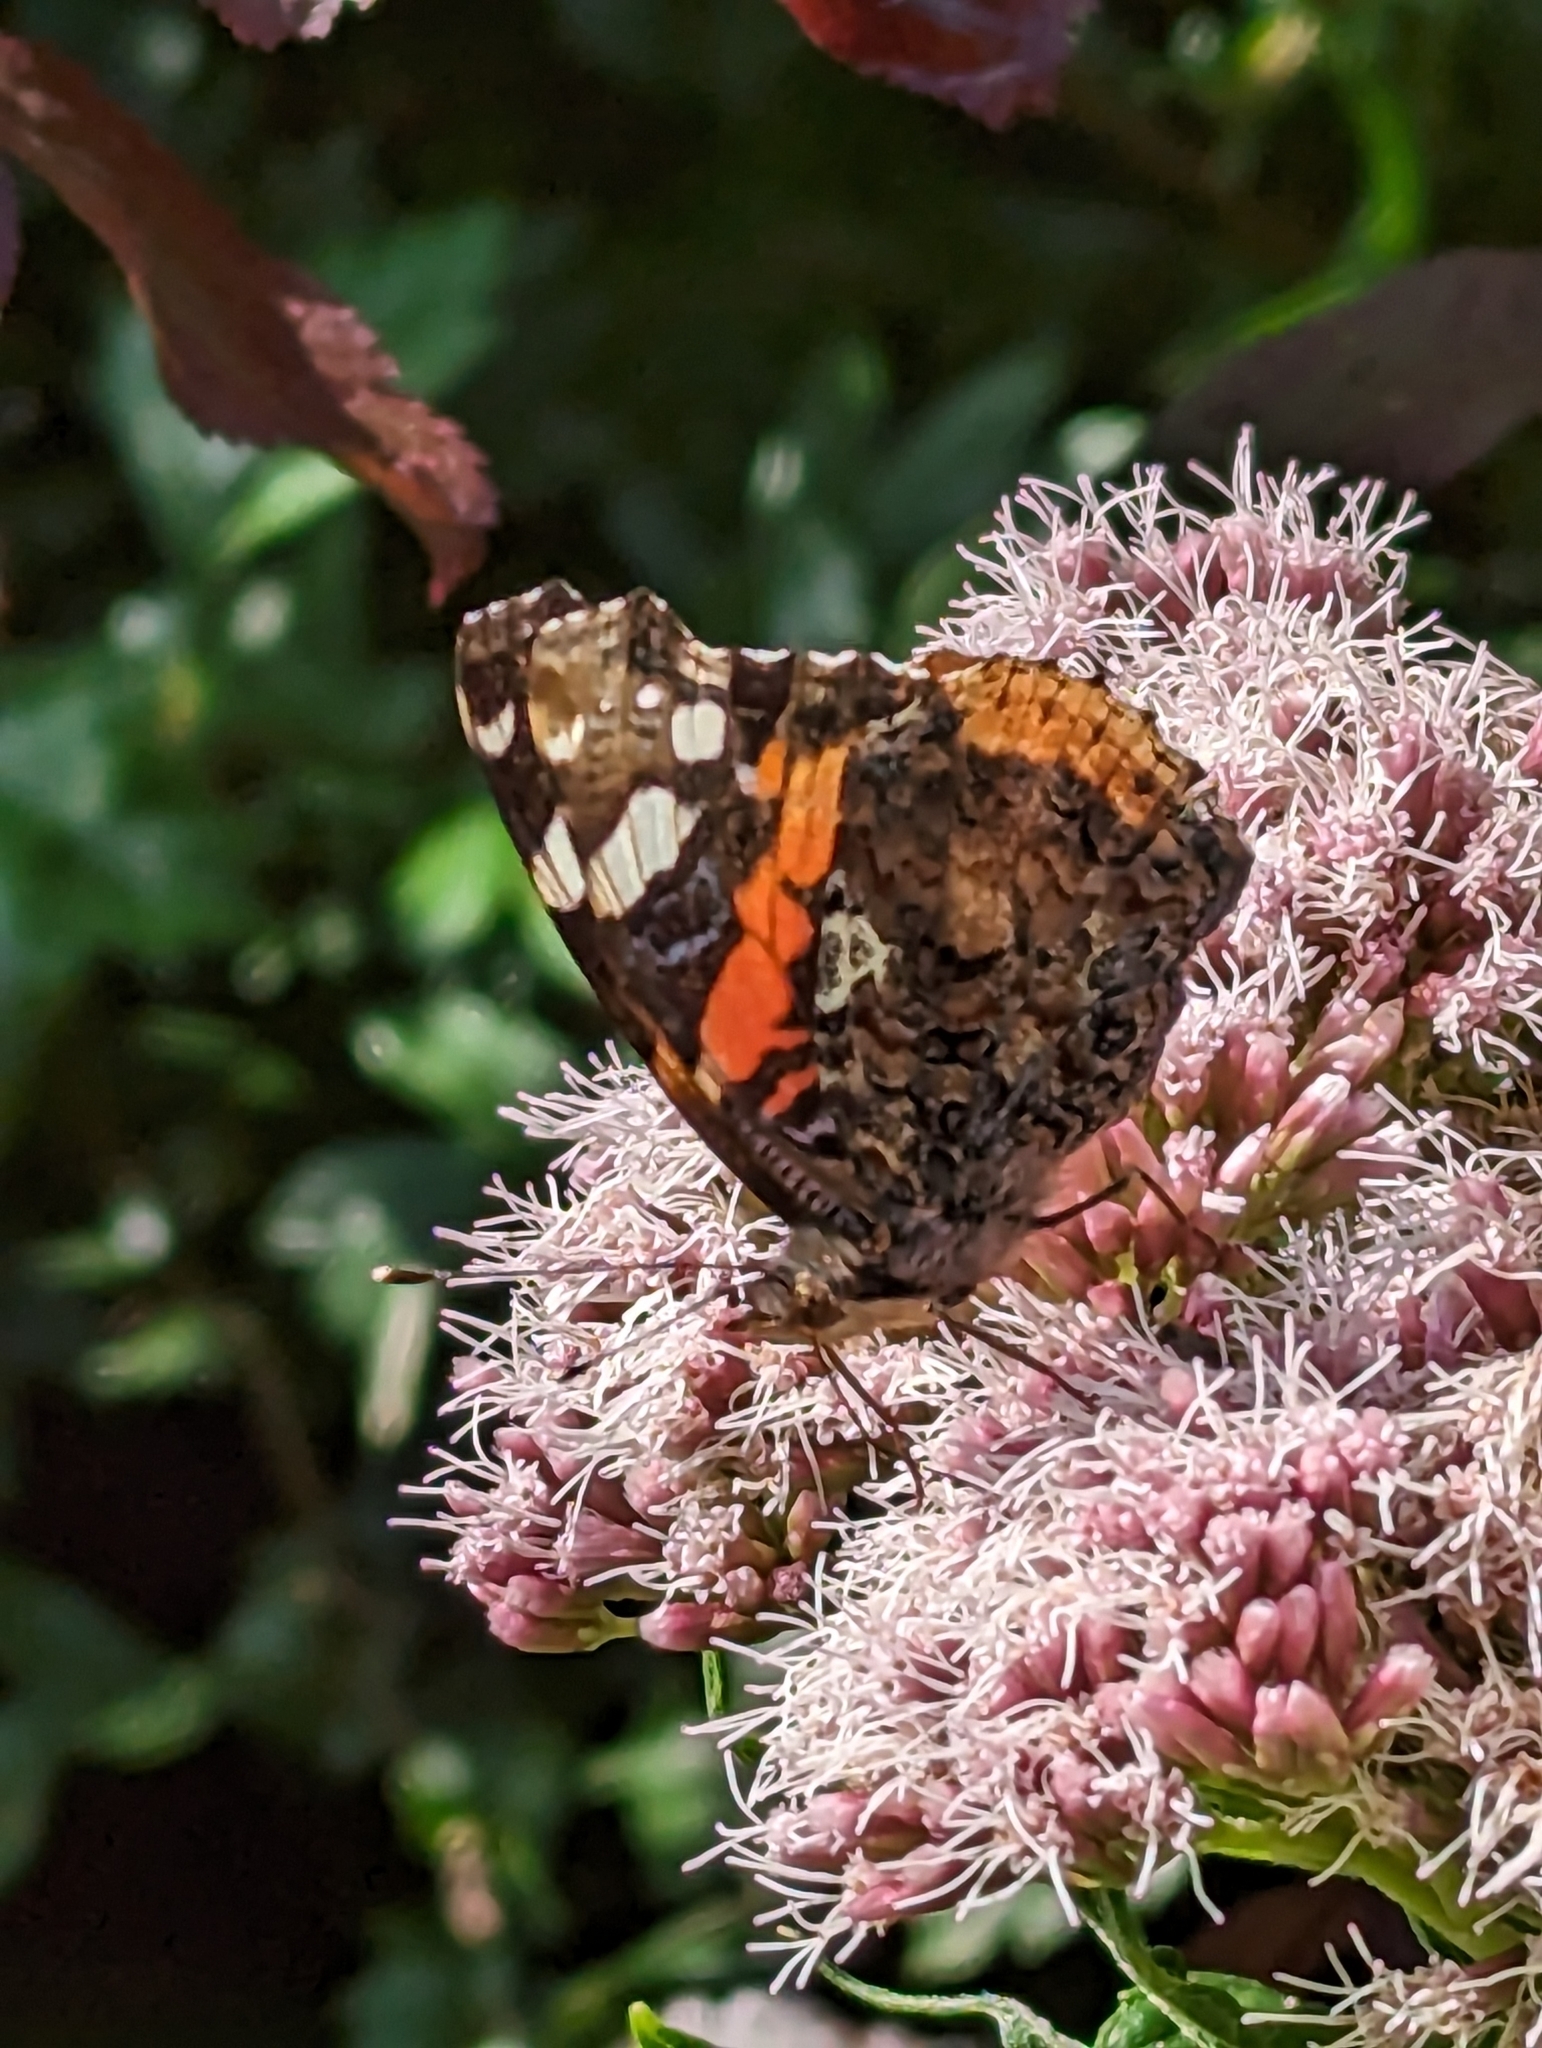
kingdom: Animalia
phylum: Arthropoda
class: Insecta
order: Lepidoptera
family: Nymphalidae
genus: Vanessa
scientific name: Vanessa atalanta
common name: Red admiral
